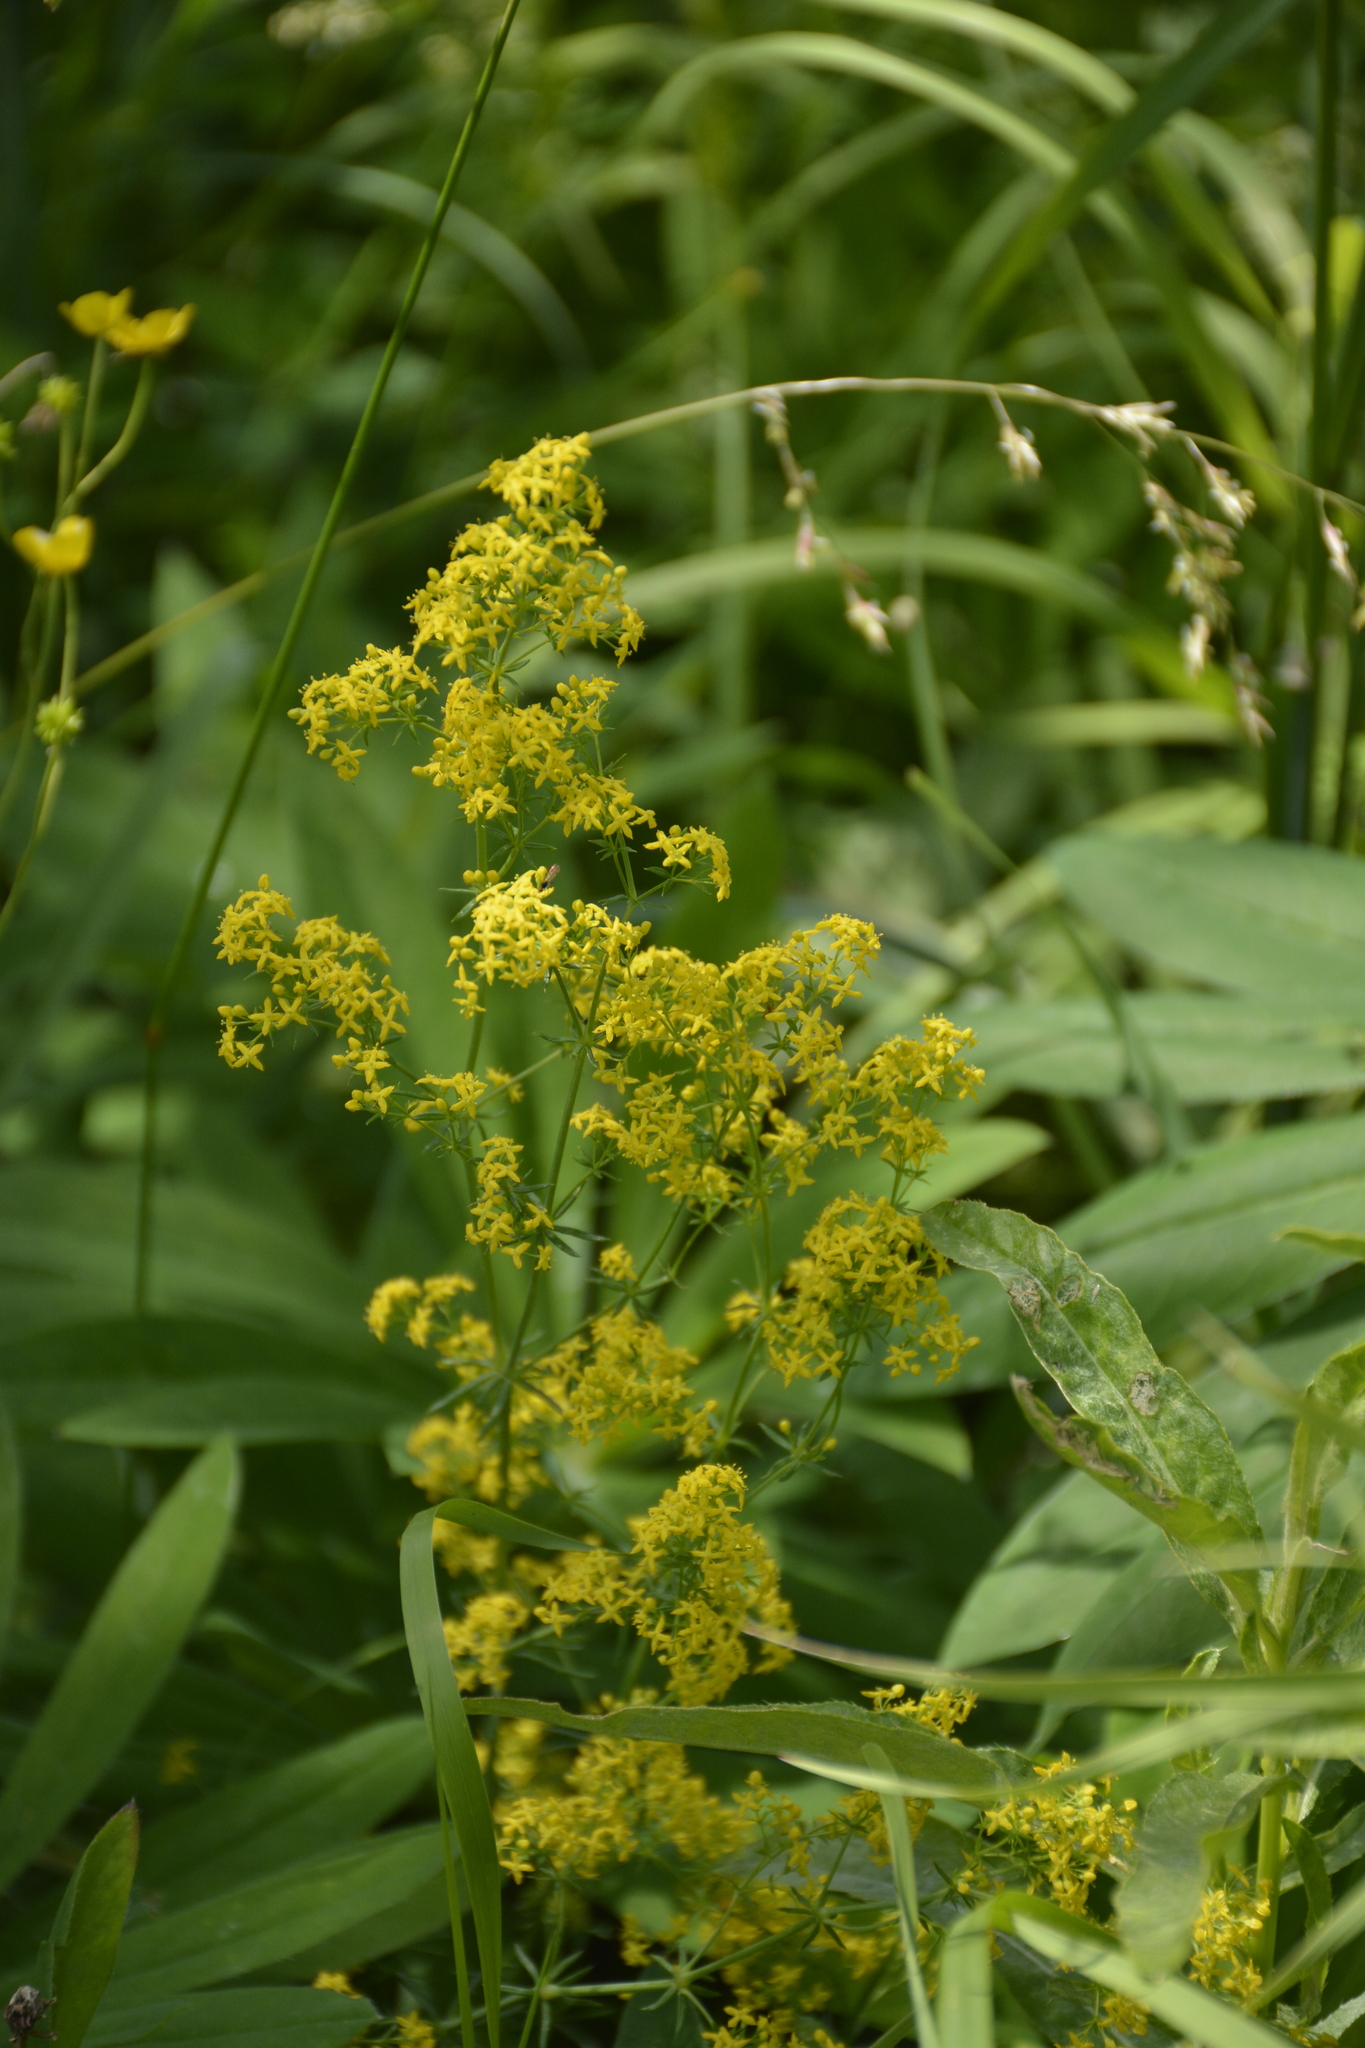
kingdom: Plantae
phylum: Tracheophyta
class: Magnoliopsida
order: Gentianales
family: Rubiaceae
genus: Galium
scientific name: Galium verum
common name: Lady's bedstraw
